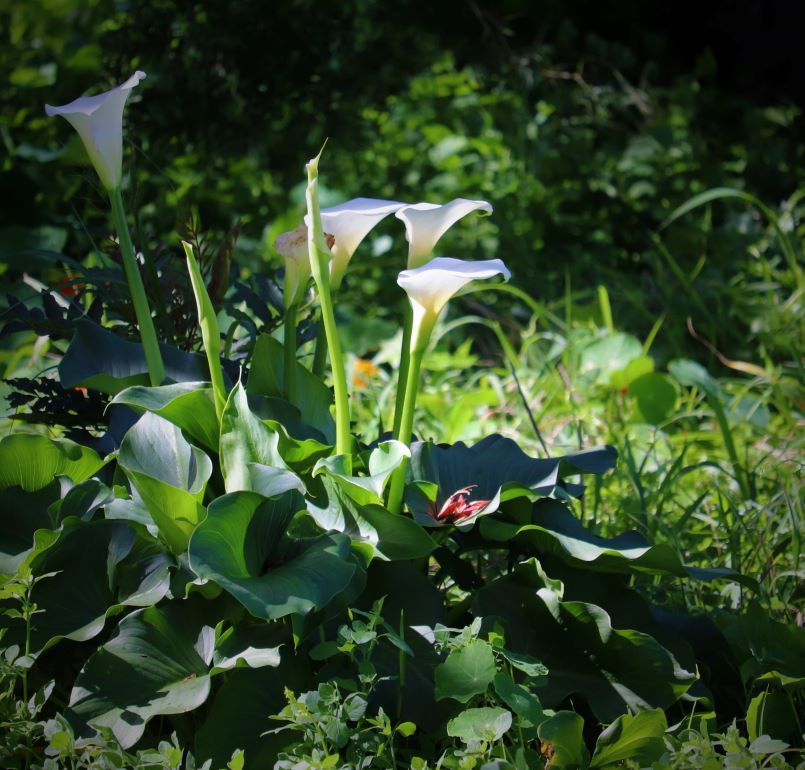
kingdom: Plantae
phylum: Tracheophyta
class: Liliopsida
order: Alismatales
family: Araceae
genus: Zantedeschia
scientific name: Zantedeschia aethiopica
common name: Altar-lily
